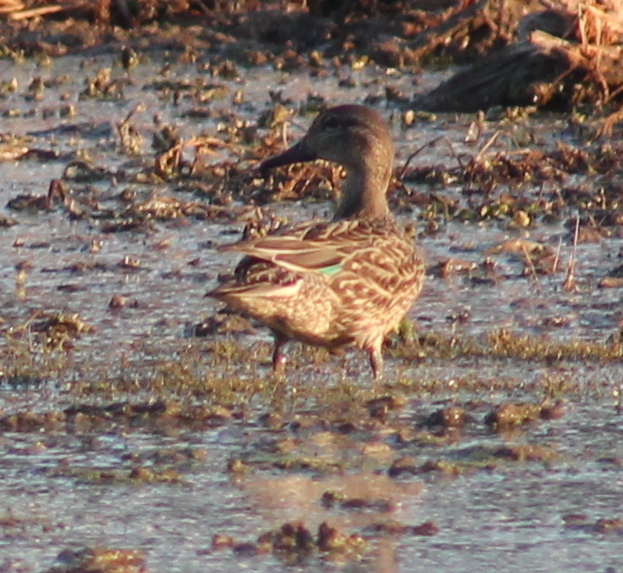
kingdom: Animalia
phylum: Chordata
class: Aves
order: Anseriformes
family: Anatidae
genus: Anas
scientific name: Anas crecca
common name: Eurasian teal
